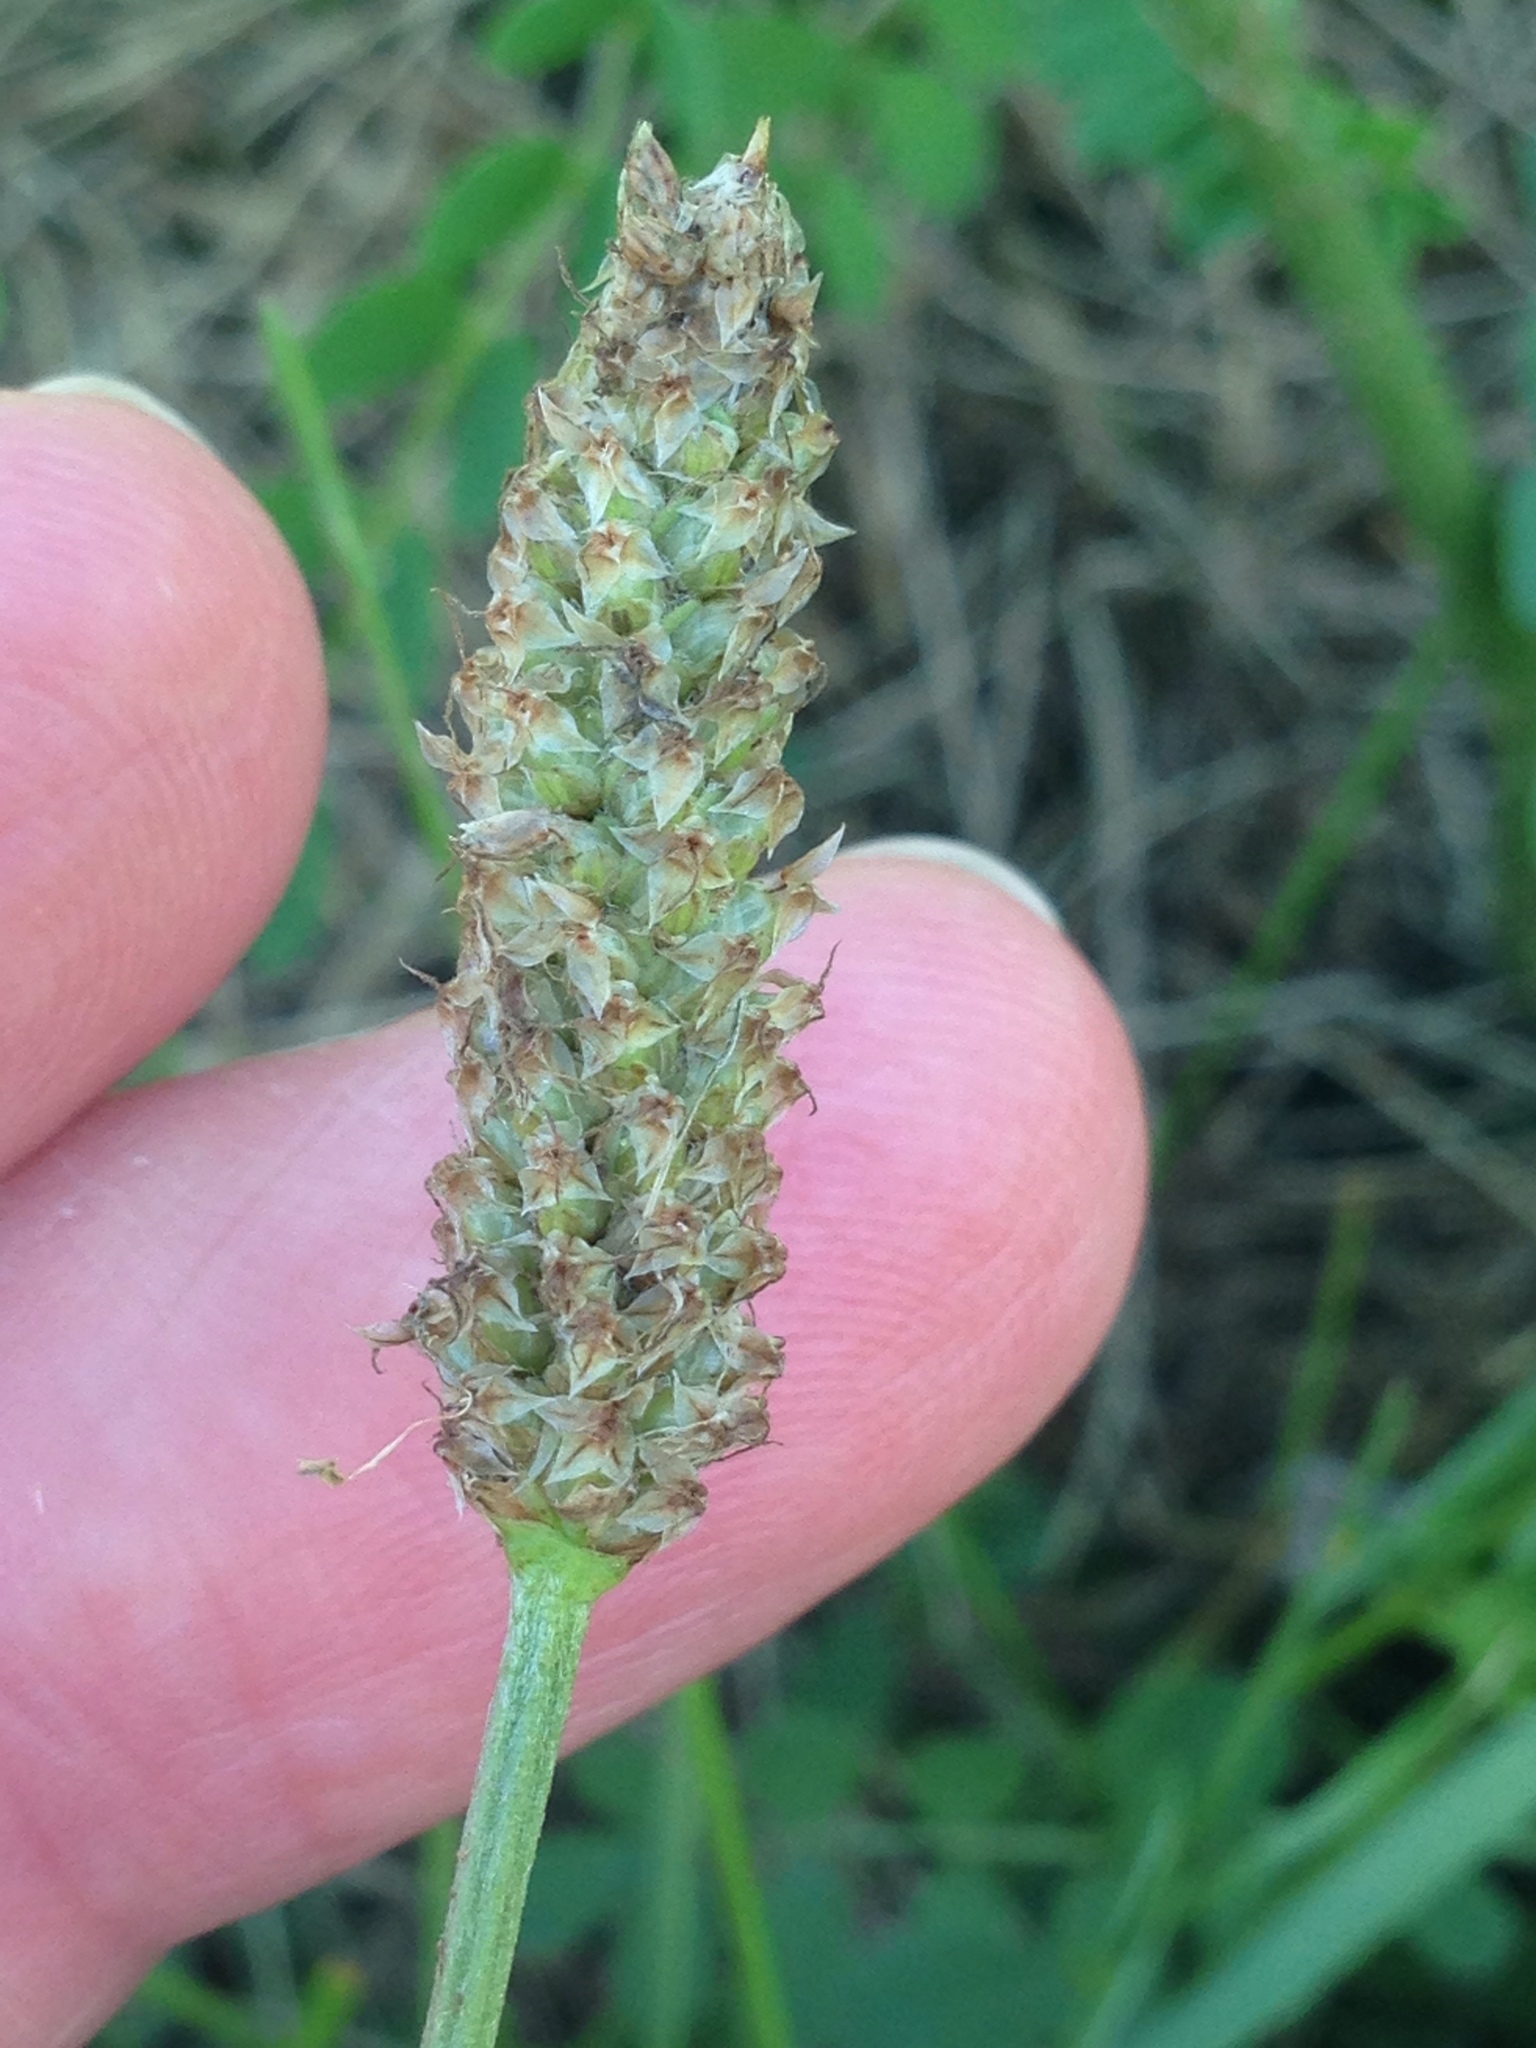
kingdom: Plantae
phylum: Tracheophyta
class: Magnoliopsida
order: Lamiales
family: Plantaginaceae
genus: Plantago
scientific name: Plantago lanceolata
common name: Ribwort plantain
